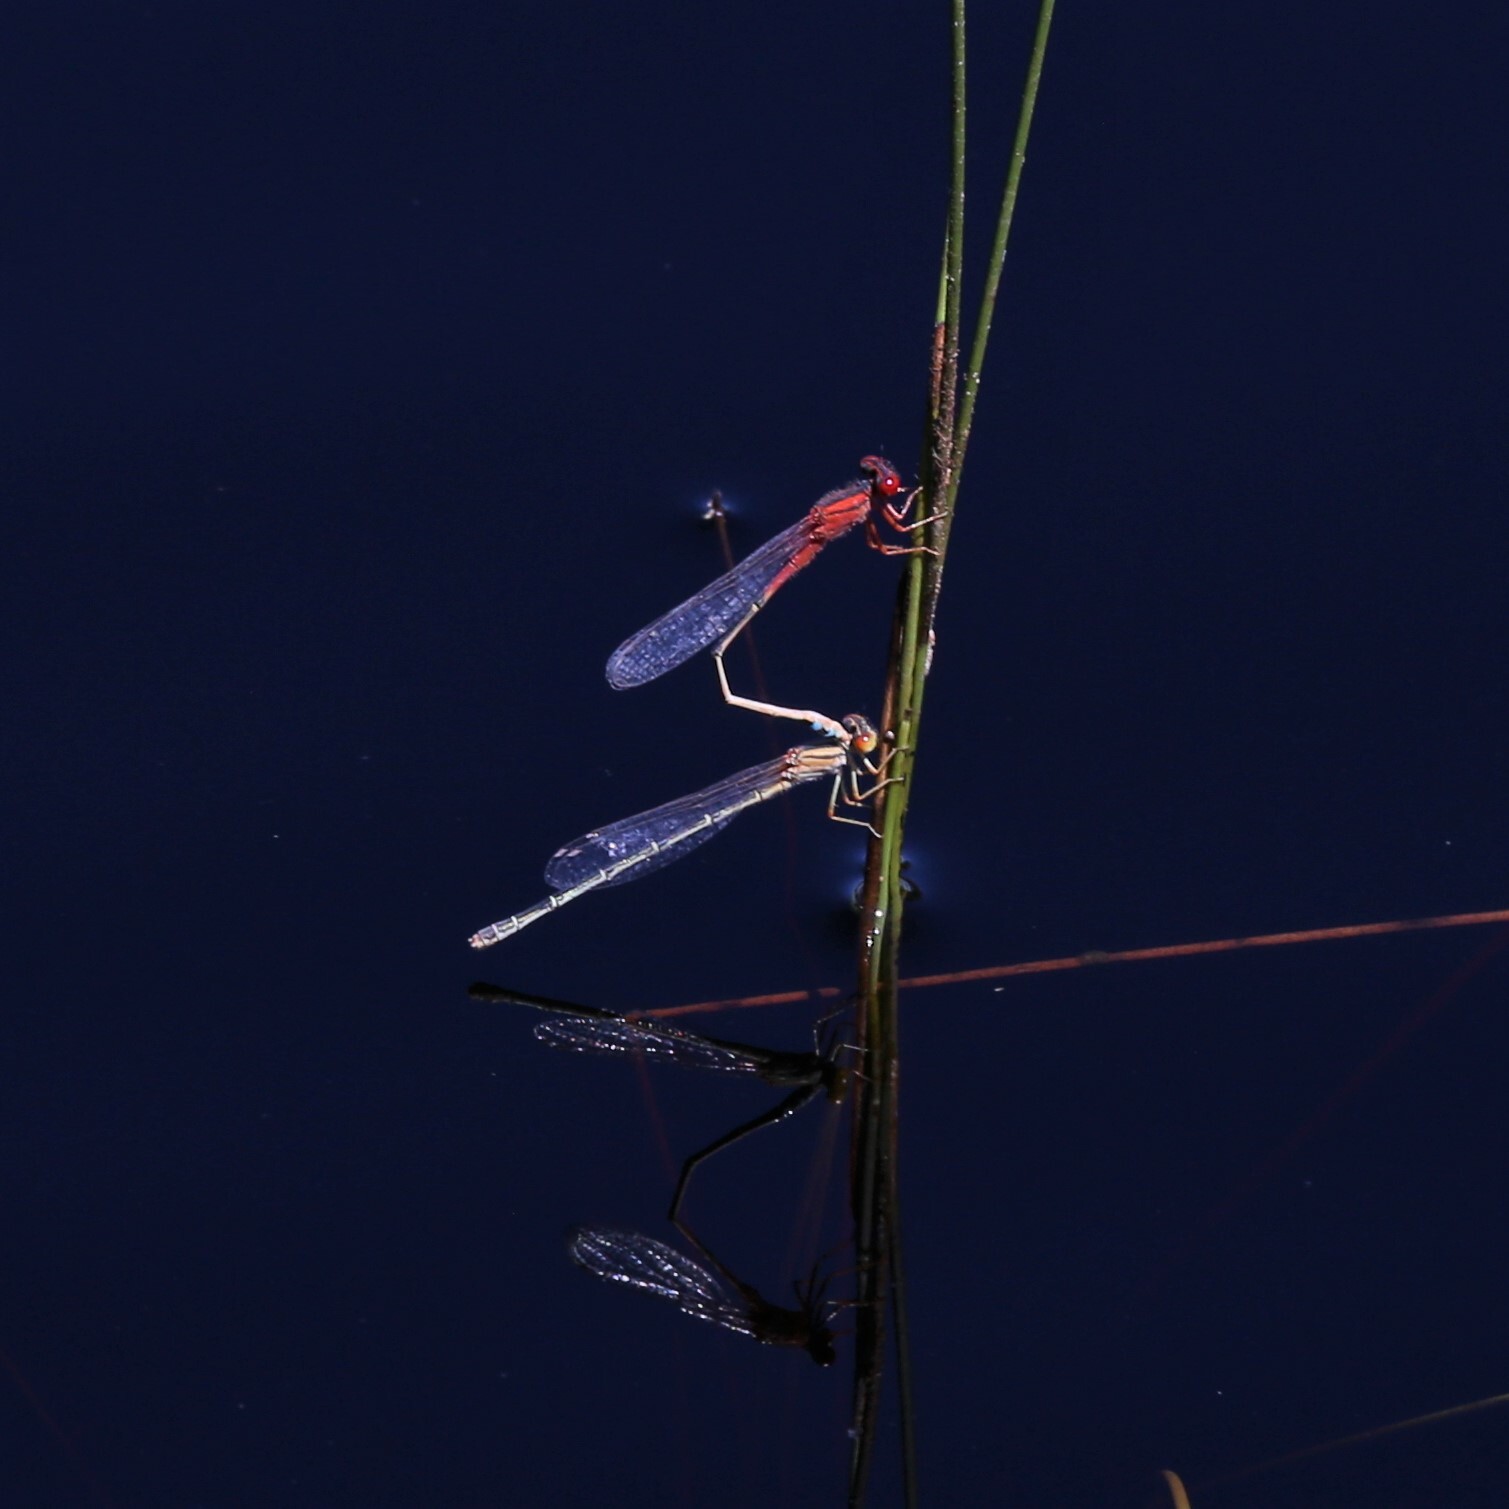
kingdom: Animalia
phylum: Arthropoda
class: Insecta
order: Odonata
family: Coenagrionidae
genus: Xanthagrion
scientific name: Xanthagrion erythroneurum
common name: Red and blue damsel
